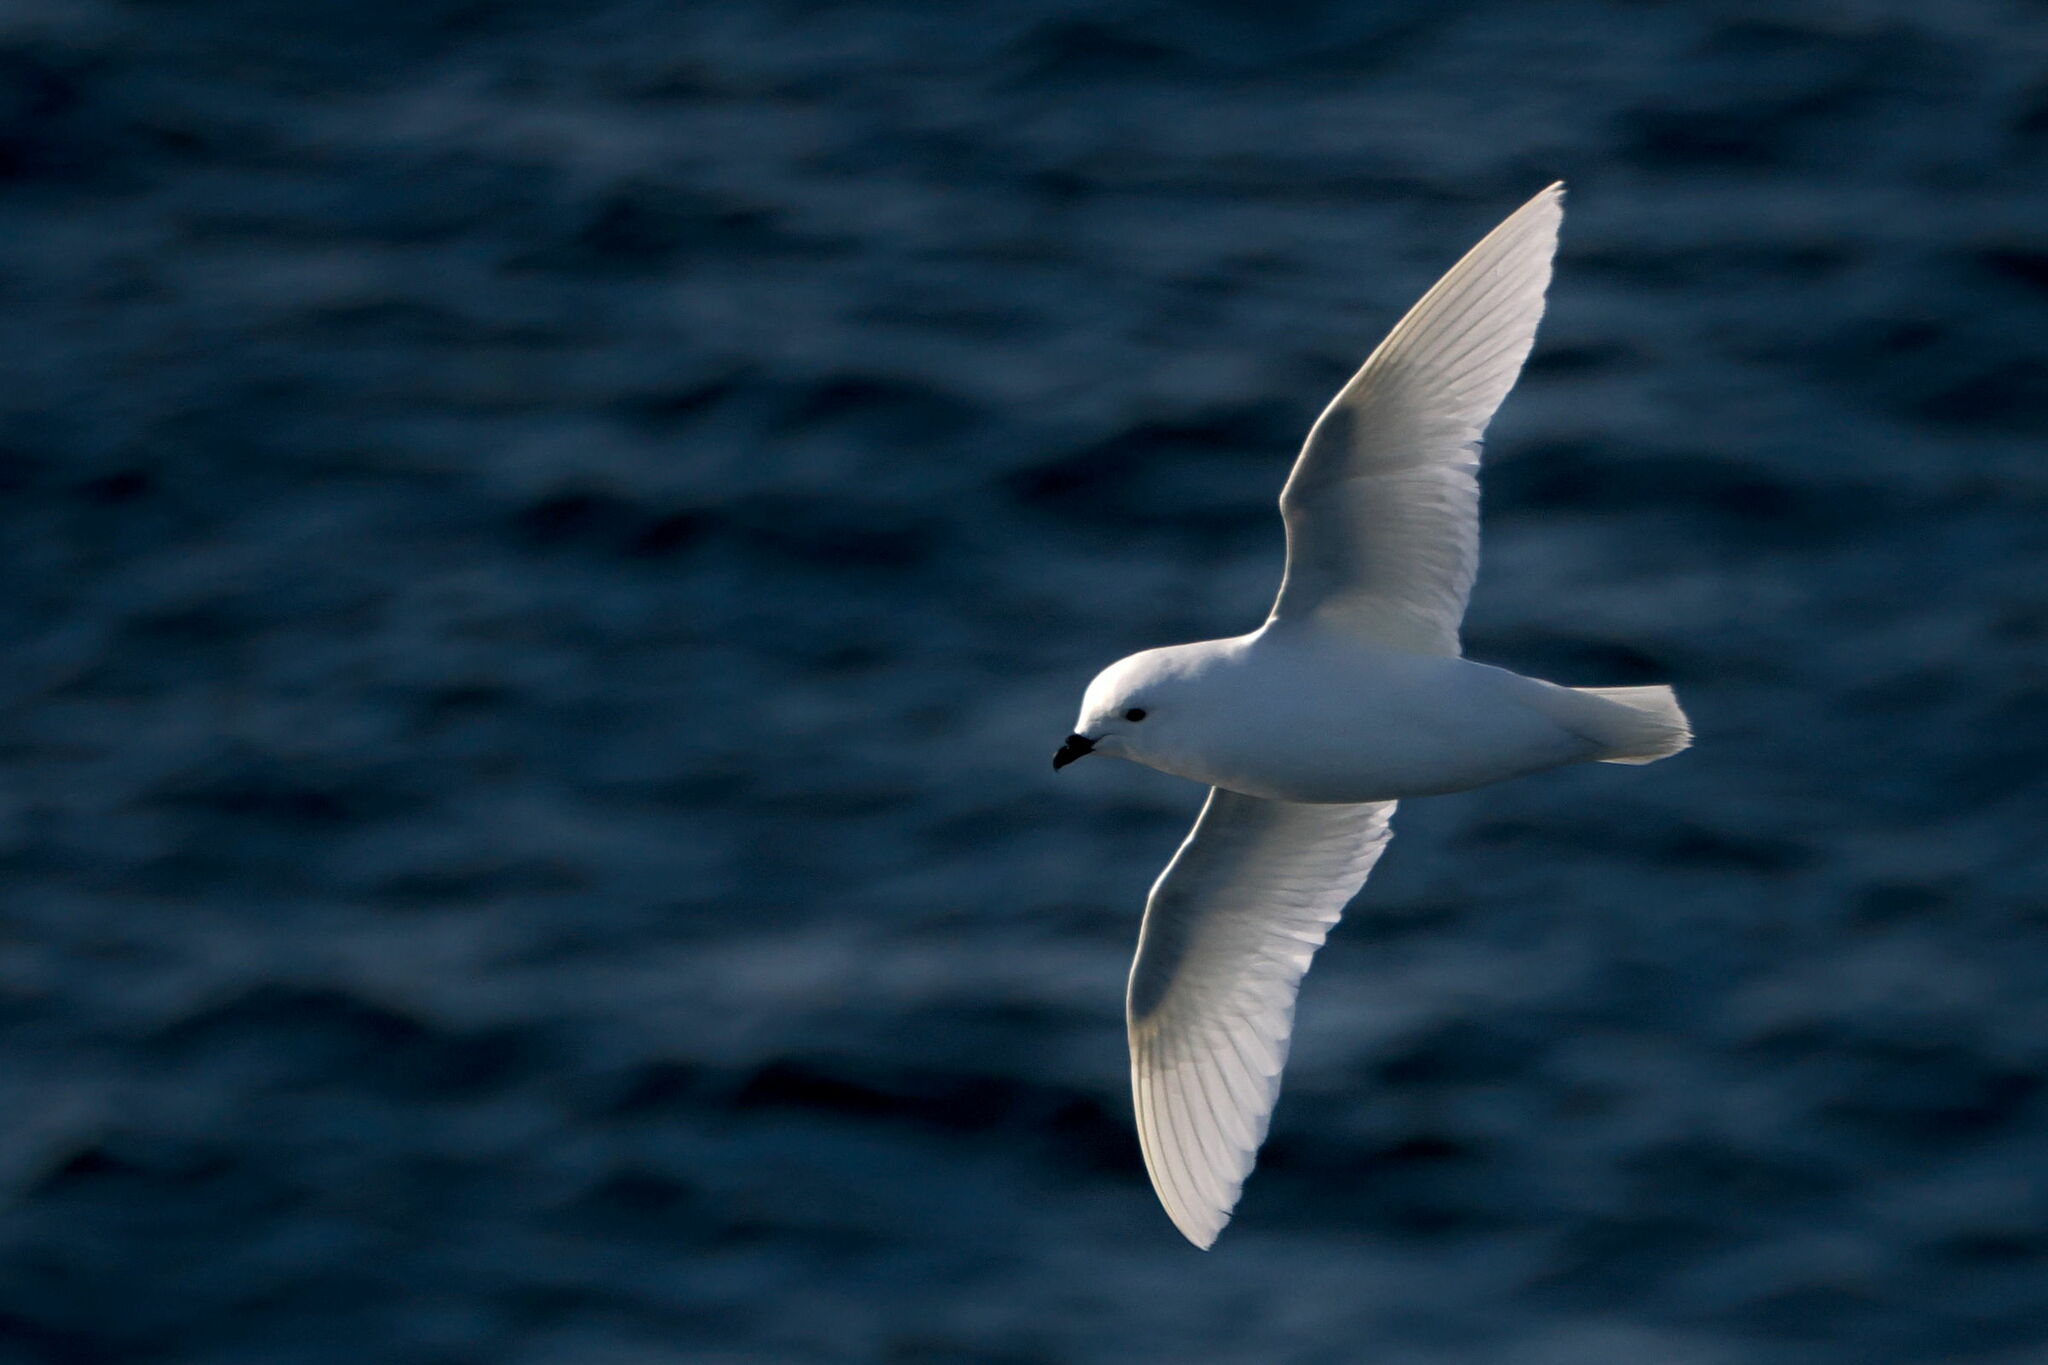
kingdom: Animalia
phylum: Chordata
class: Aves
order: Procellariiformes
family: Procellariidae
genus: Pagodroma
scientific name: Pagodroma nivea
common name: Snow petrel
